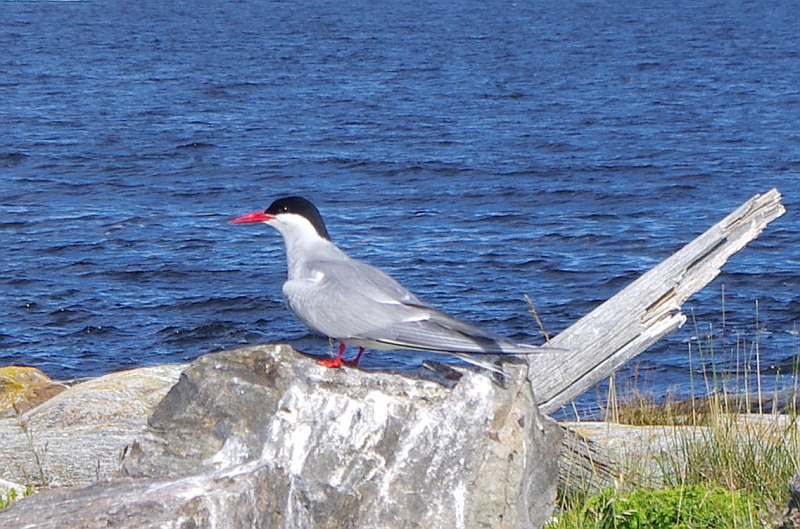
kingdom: Animalia
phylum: Chordata
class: Aves
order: Charadriiformes
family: Laridae
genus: Sterna
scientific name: Sterna paradisaea
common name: Arctic tern
